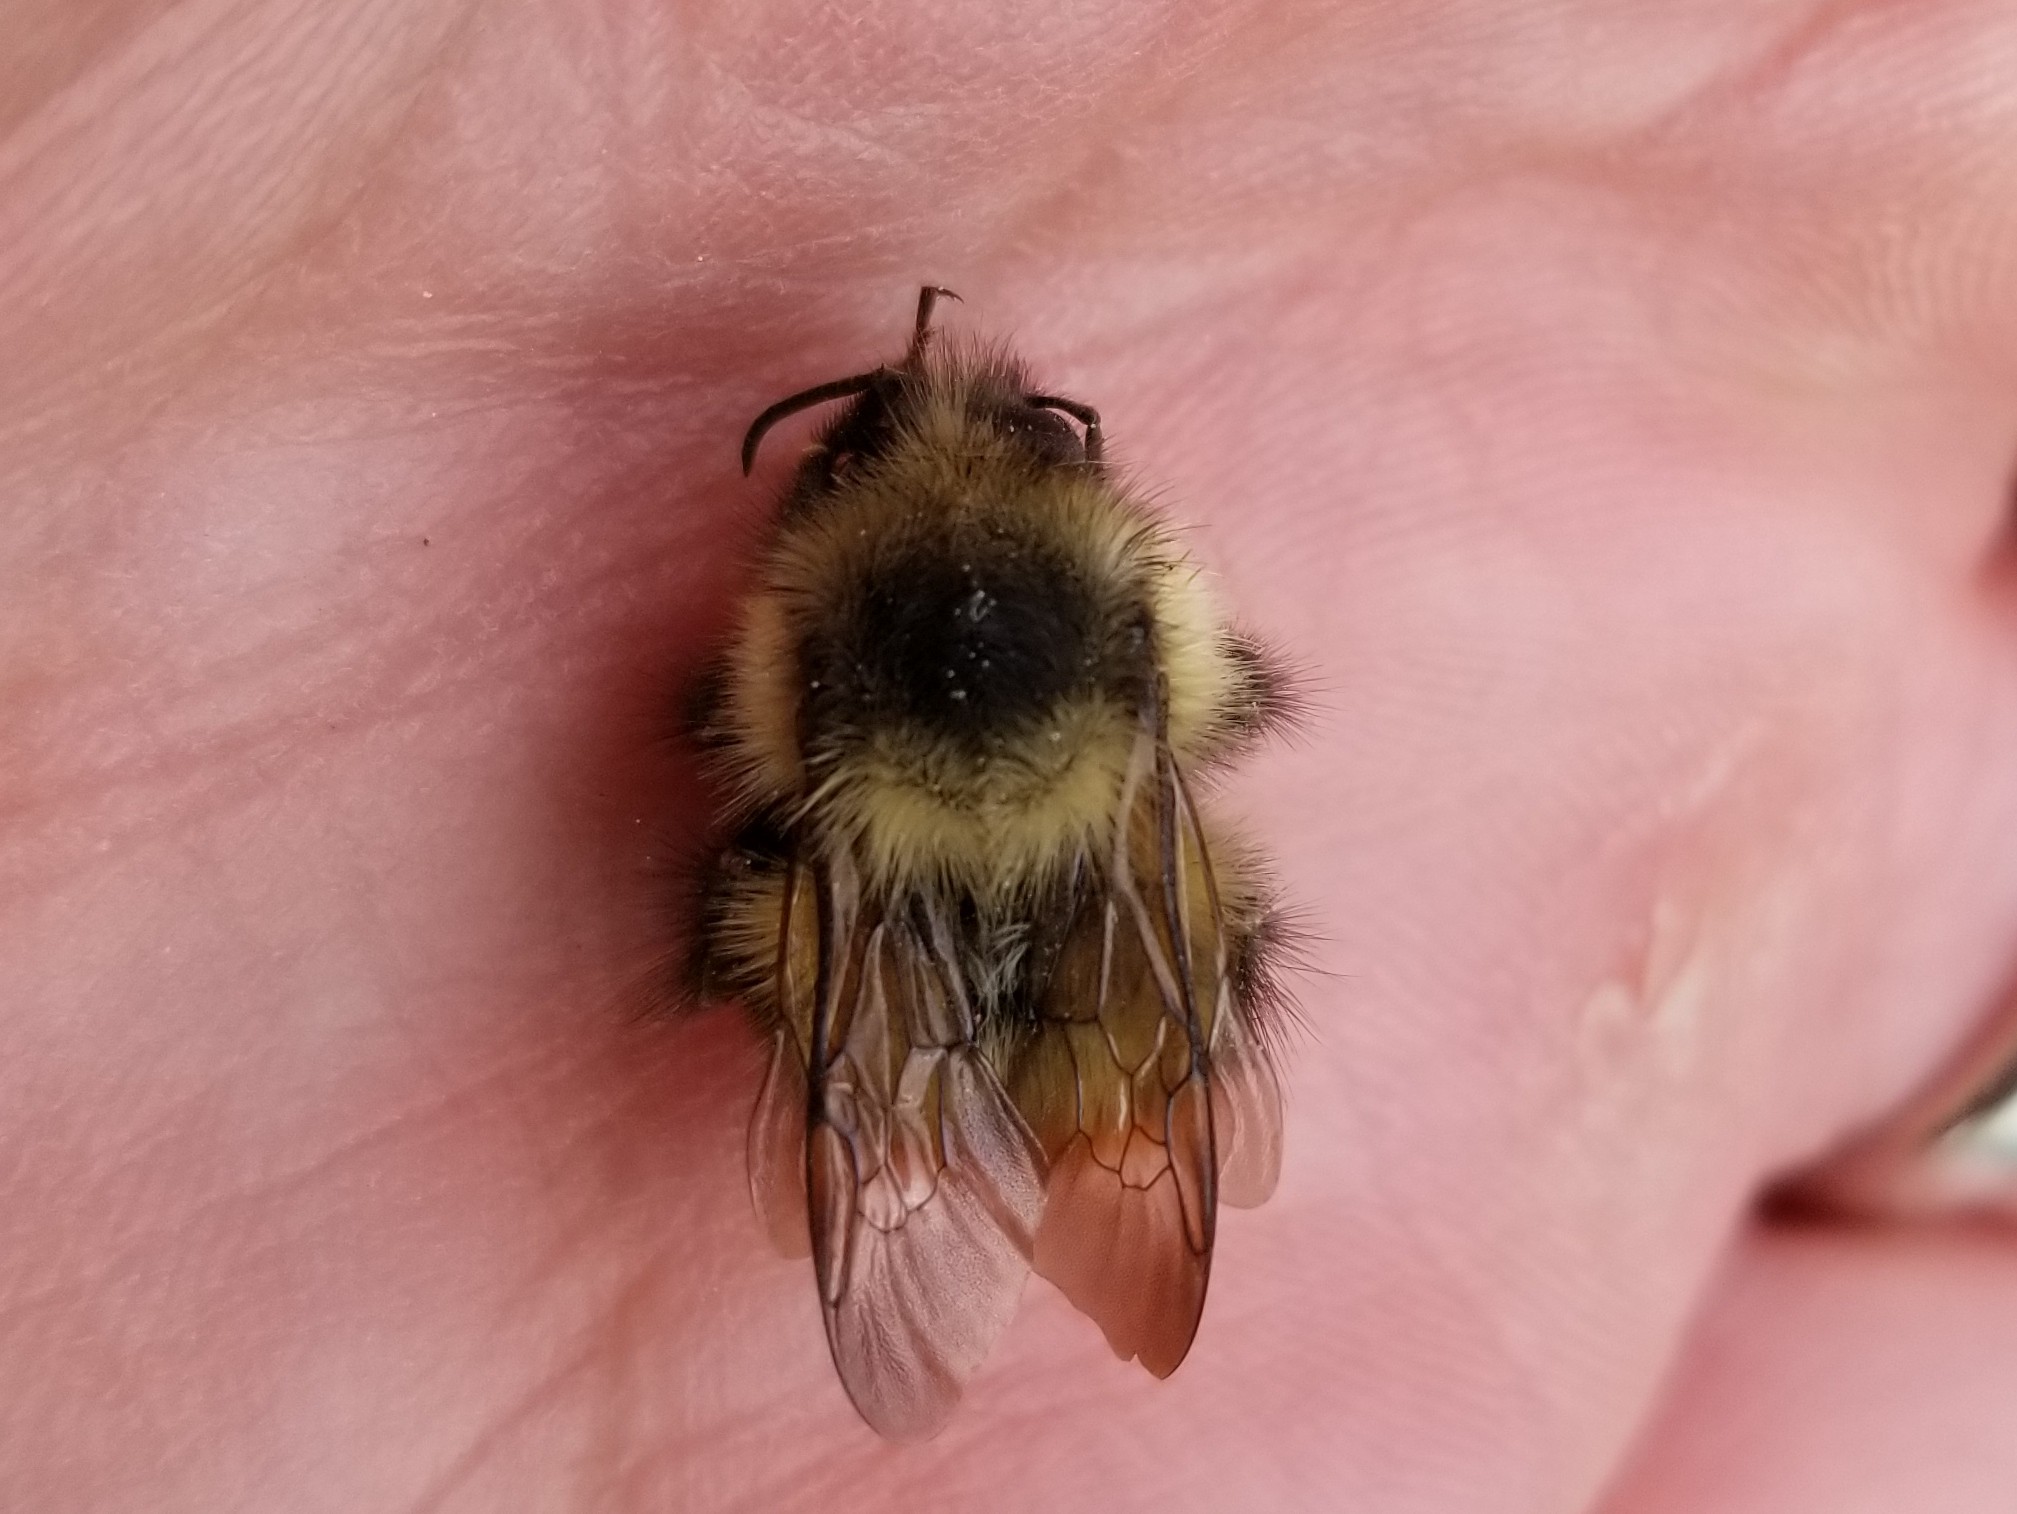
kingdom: Animalia
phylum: Arthropoda
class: Insecta
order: Hymenoptera
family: Apidae
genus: Bombus
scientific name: Bombus mixtus
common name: Fuzzy-horned bumble bee
